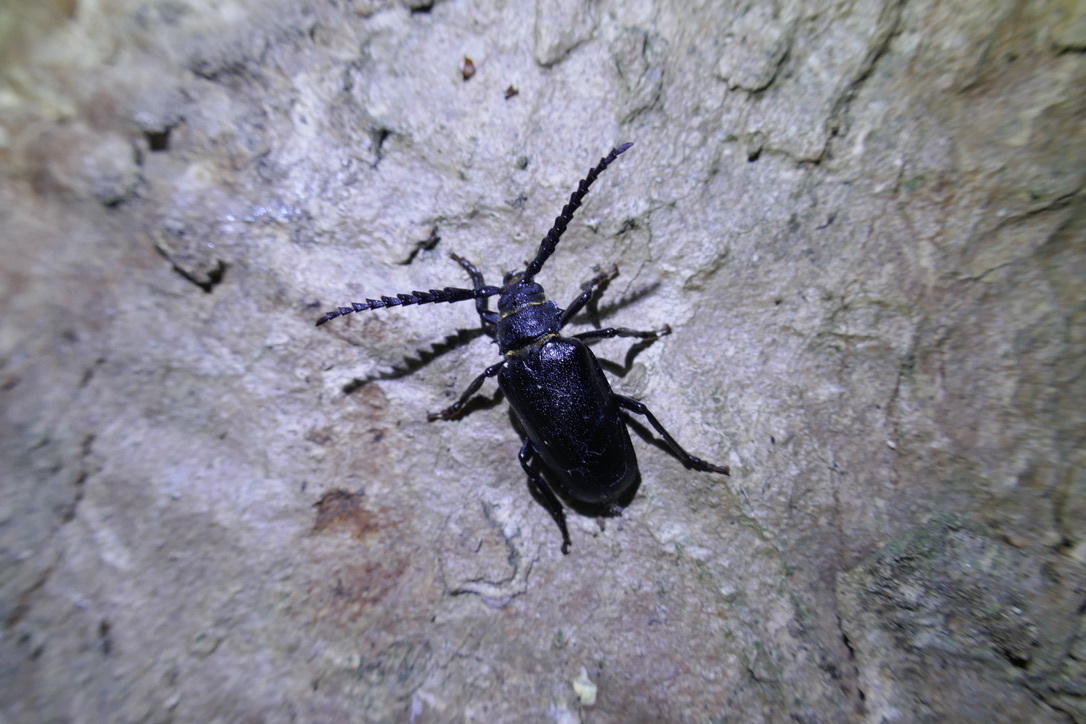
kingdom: Animalia
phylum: Arthropoda
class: Insecta
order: Coleoptera
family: Cerambycidae
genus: Prionus
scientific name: Prionus coriarius
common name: Tanner beetle
